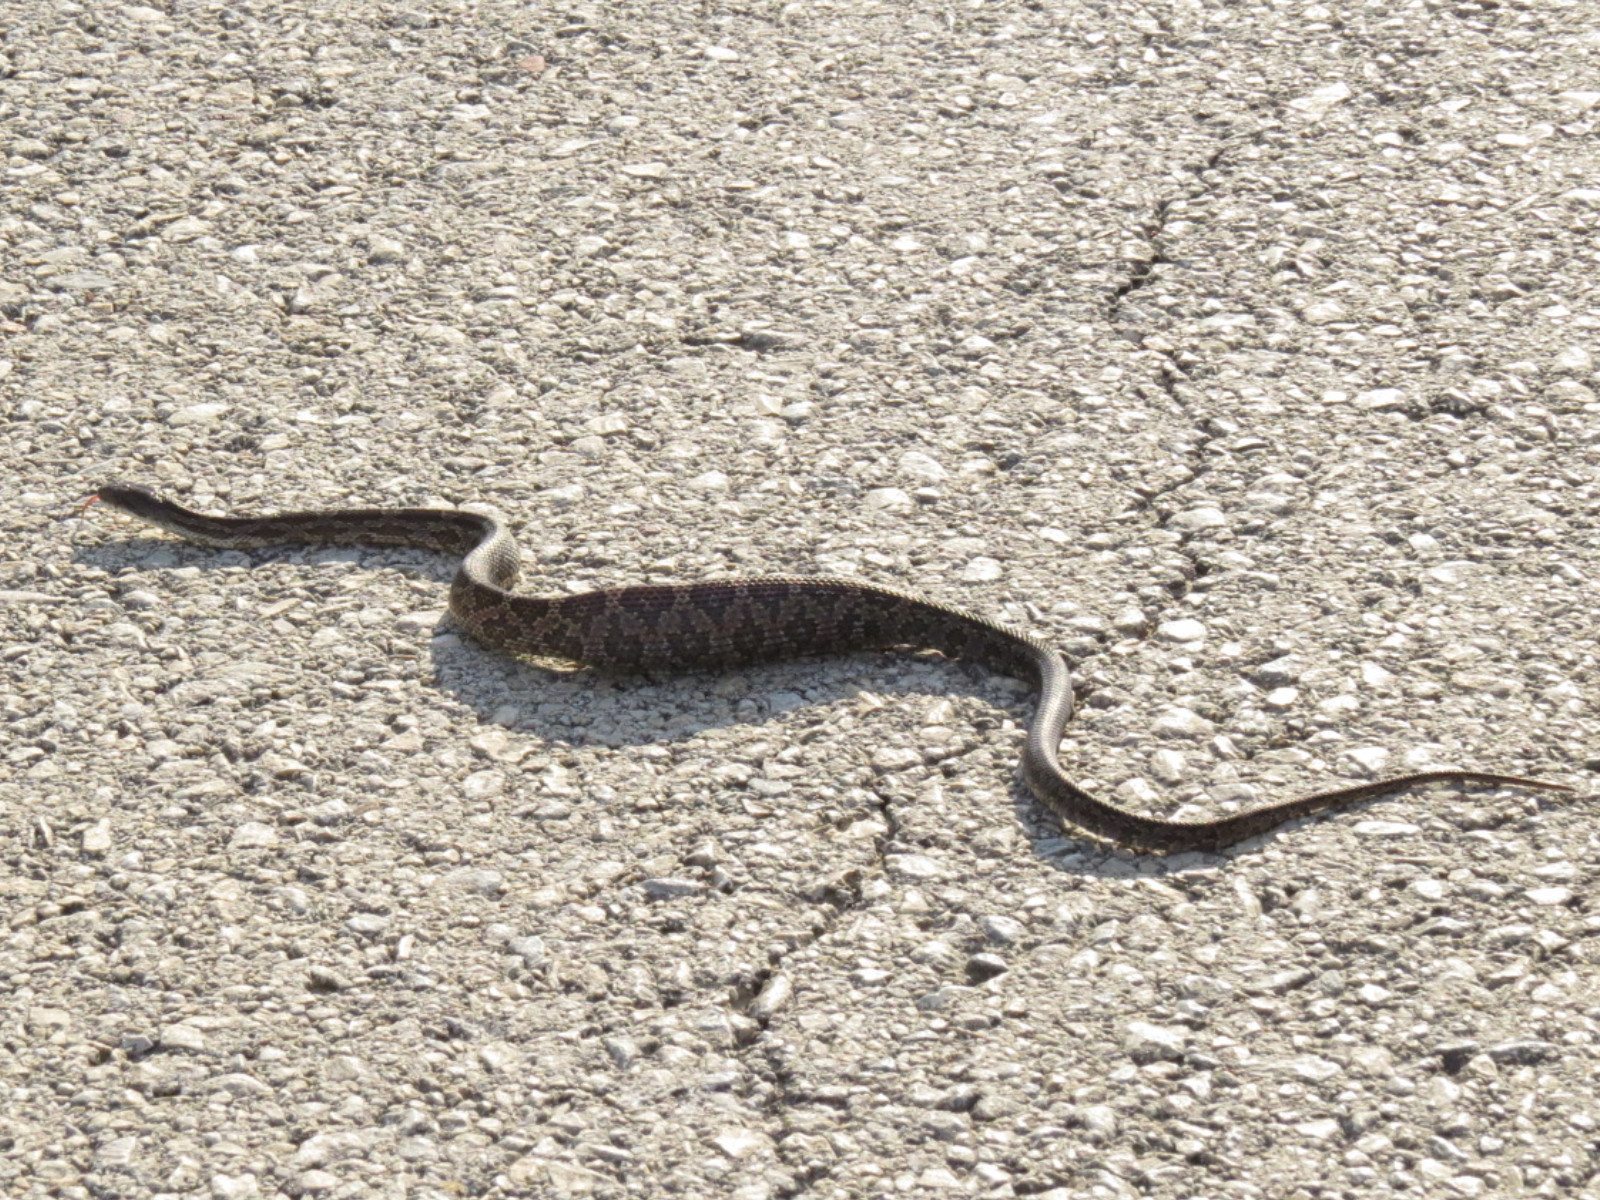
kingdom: Animalia
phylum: Chordata
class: Squamata
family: Colubridae
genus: Pantherophis
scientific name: Pantherophis obsoletus
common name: Black rat snake
